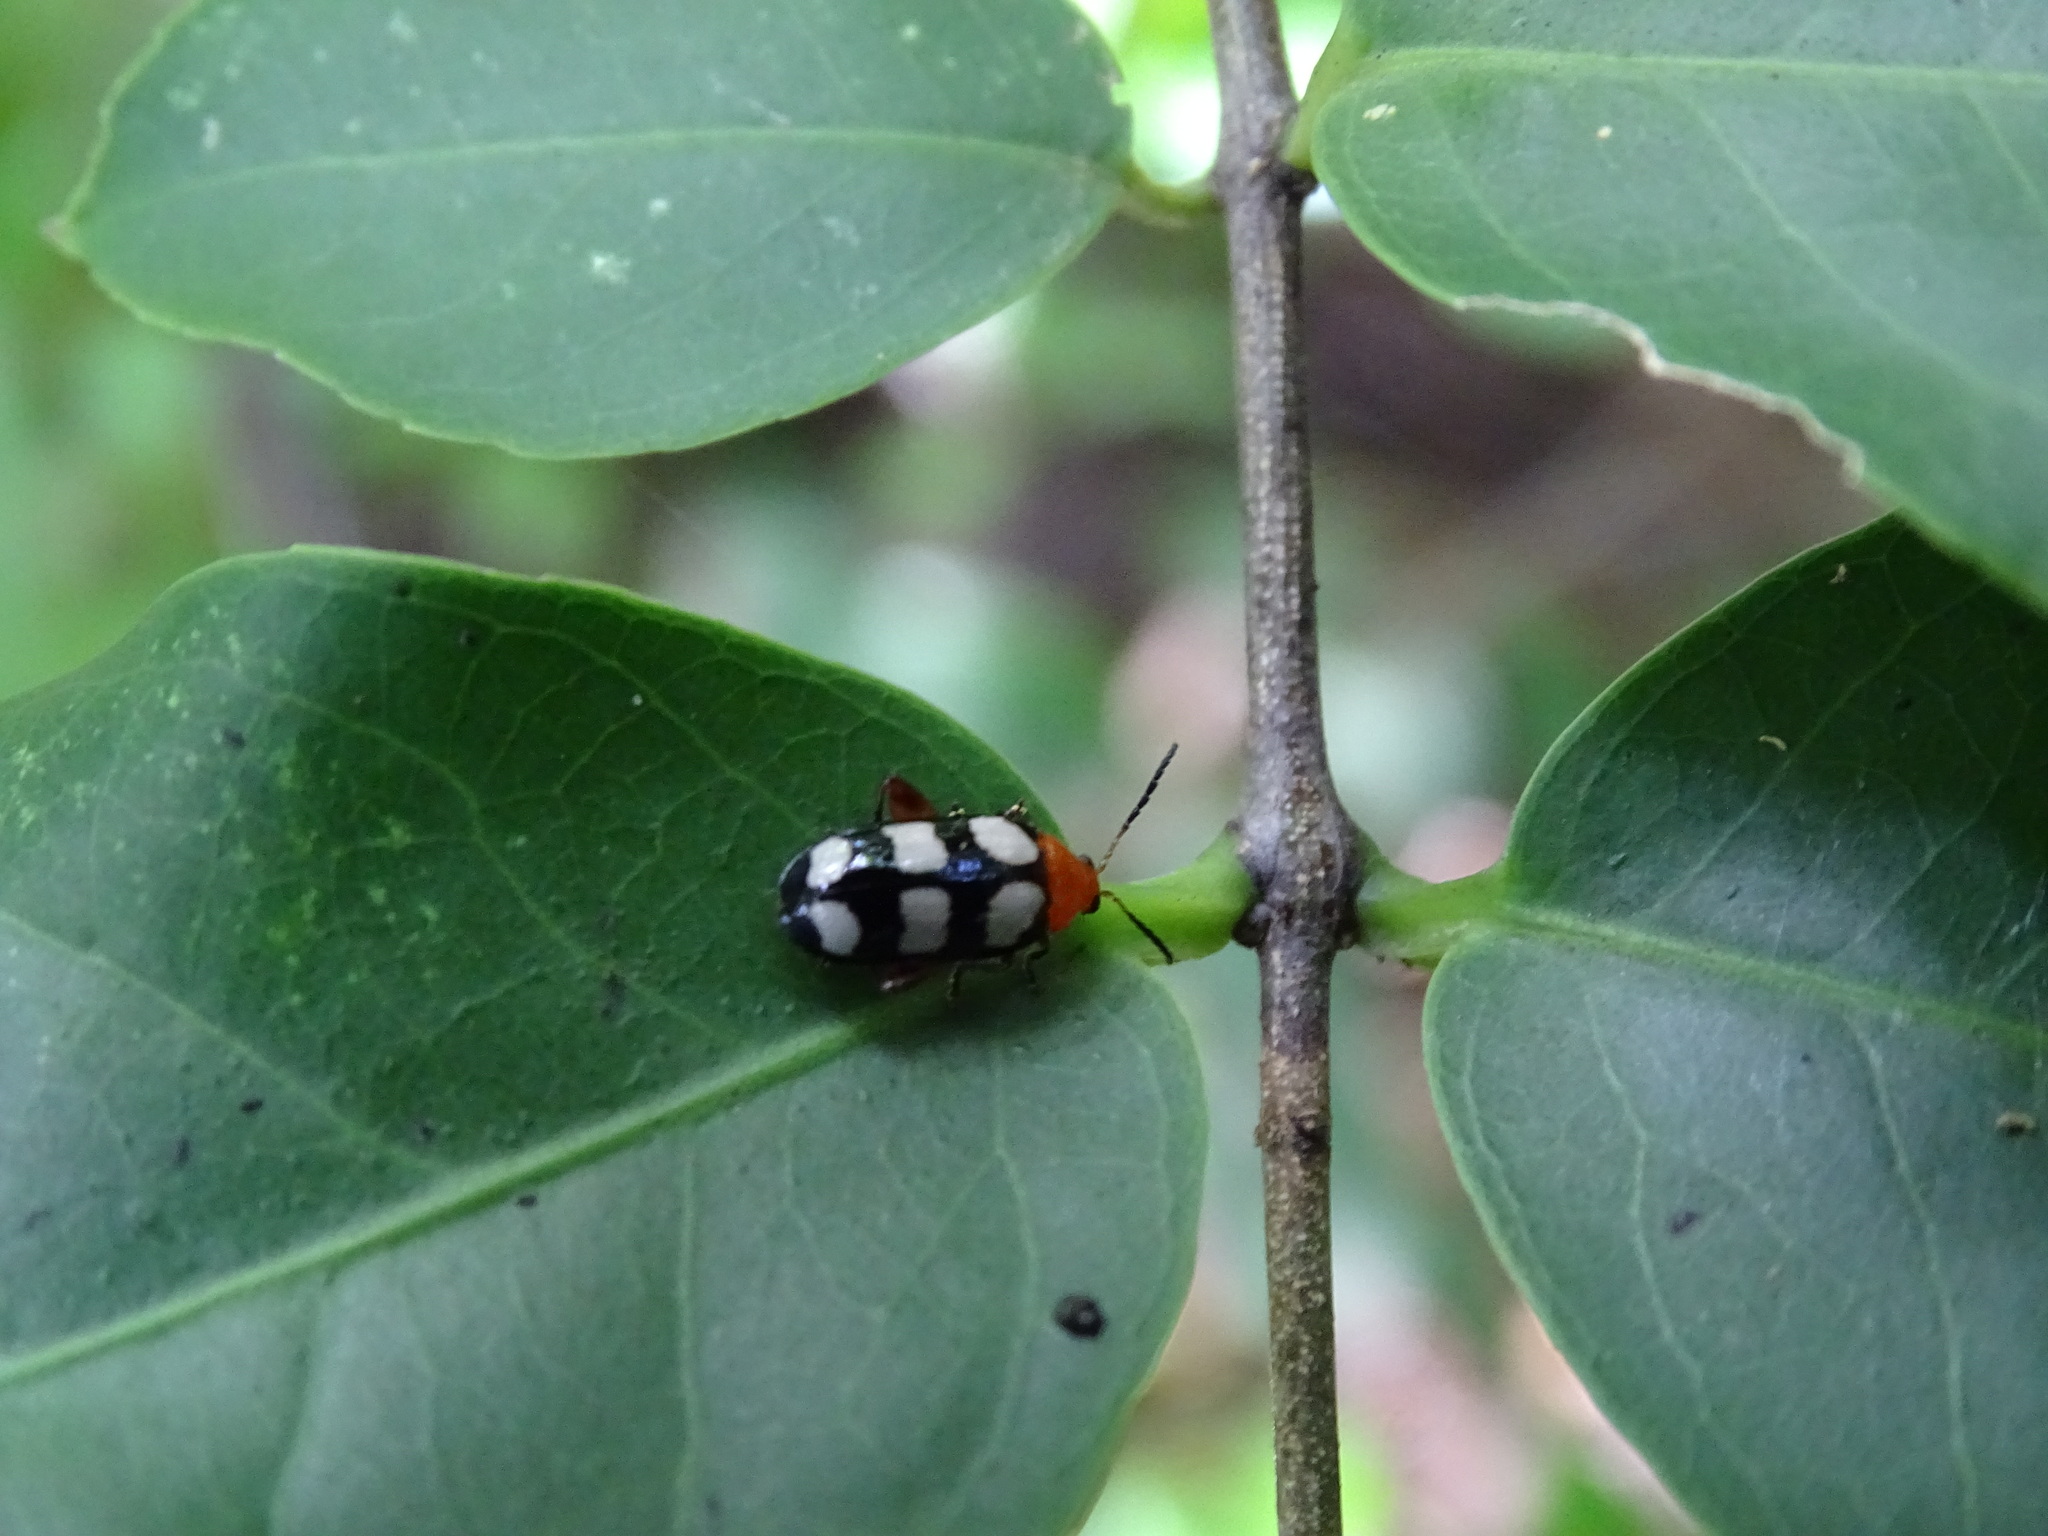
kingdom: Animalia
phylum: Arthropoda
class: Insecta
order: Coleoptera
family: Chrysomelidae
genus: Disonycha
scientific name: Disonycha
